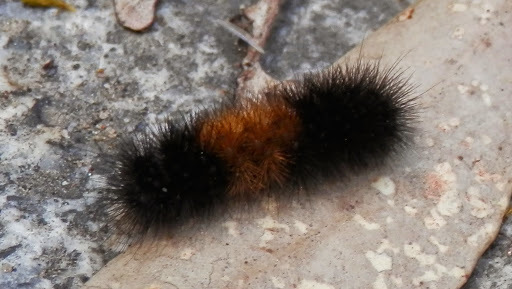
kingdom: Animalia
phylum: Arthropoda
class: Insecta
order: Lepidoptera
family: Erebidae
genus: Pyrrharctia
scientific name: Pyrrharctia isabella
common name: Isabella tiger moth
